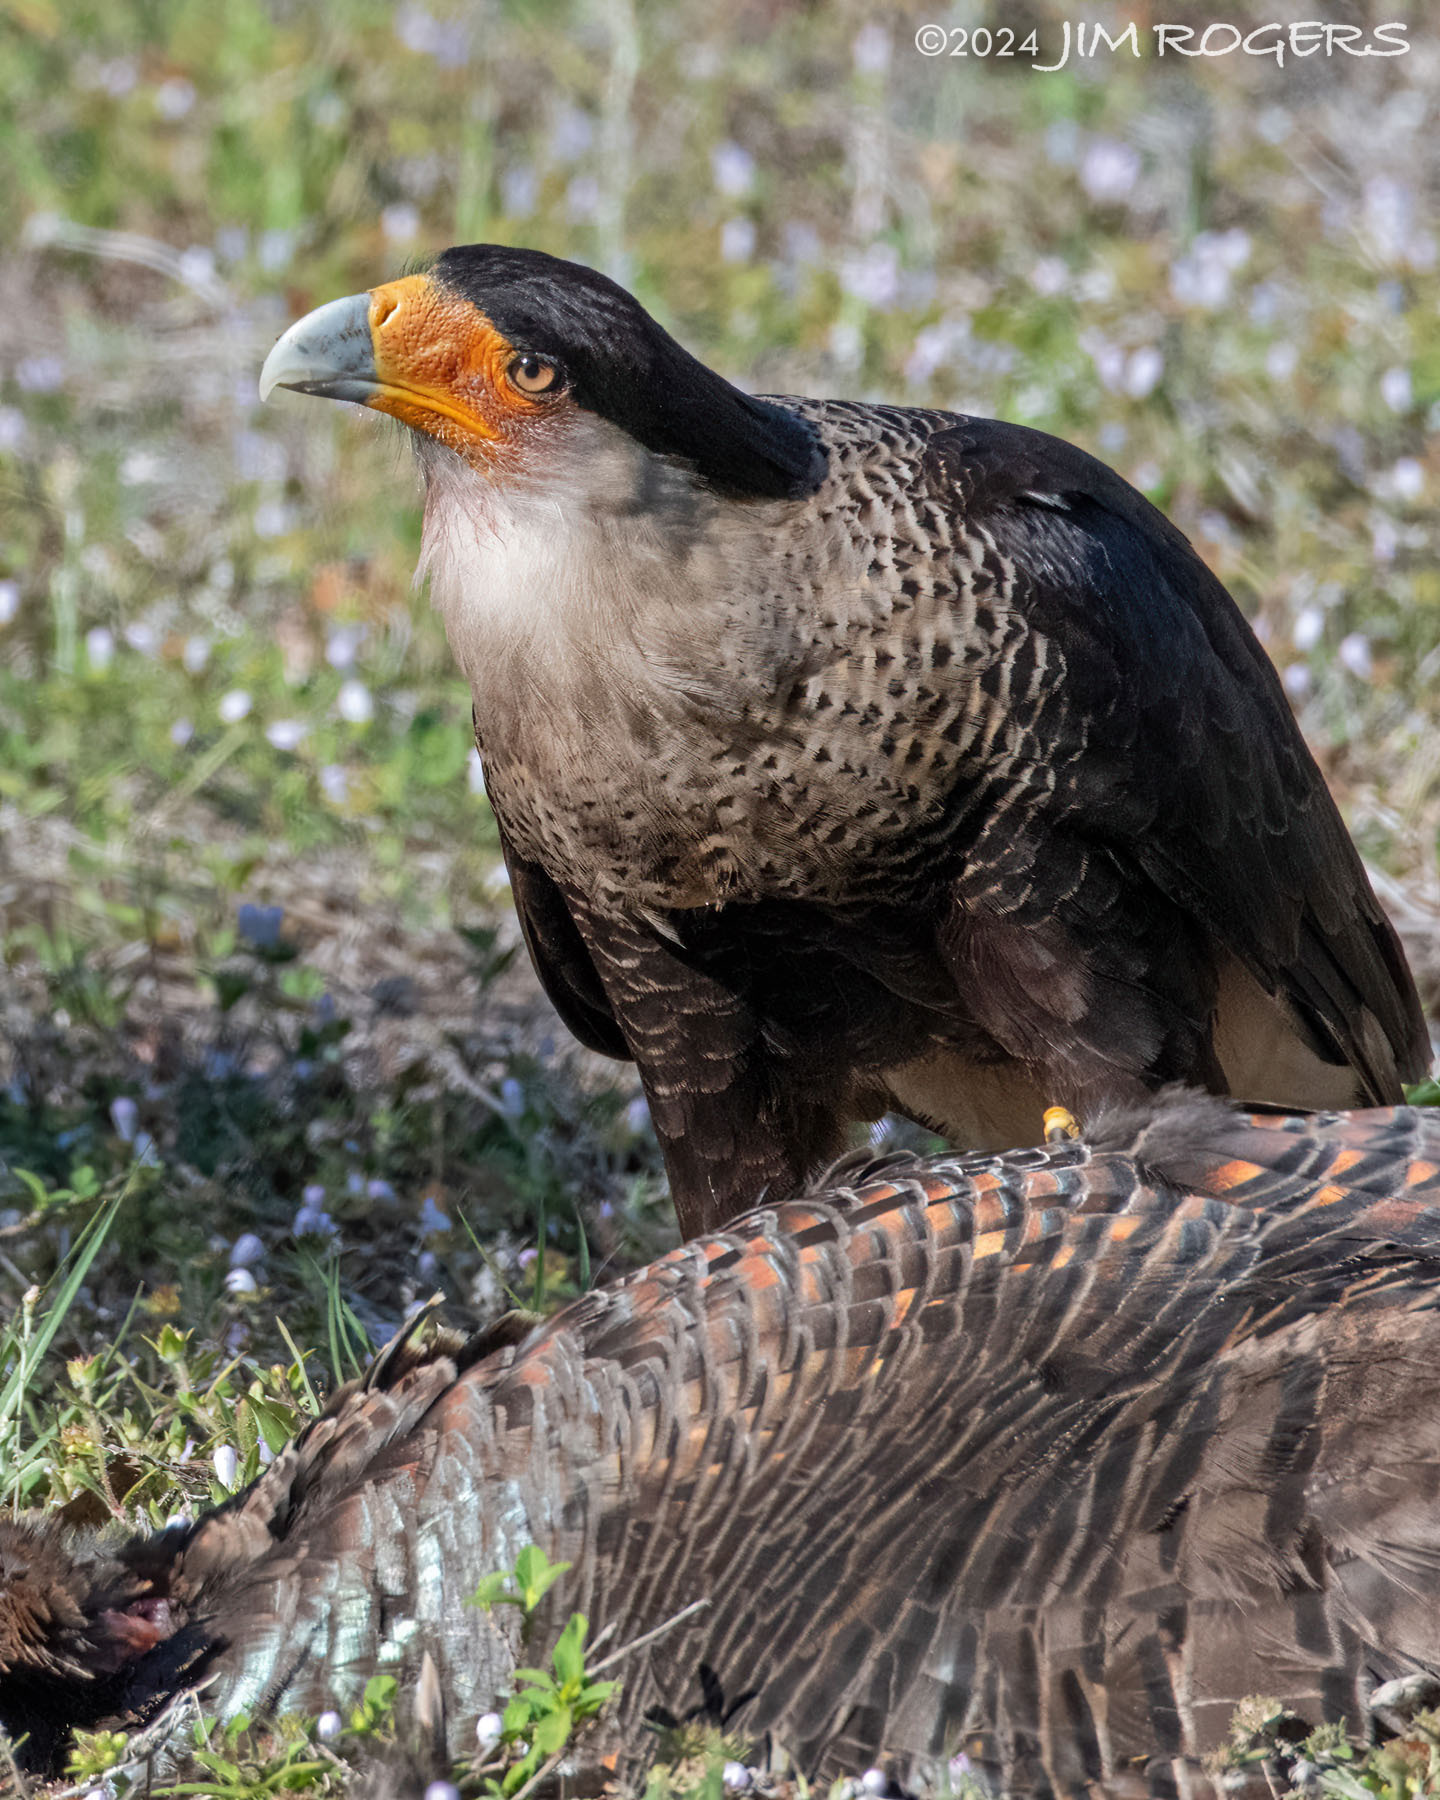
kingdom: Animalia
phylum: Chordata
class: Aves
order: Falconiformes
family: Falconidae
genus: Caracara
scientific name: Caracara plancus
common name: Southern caracara
